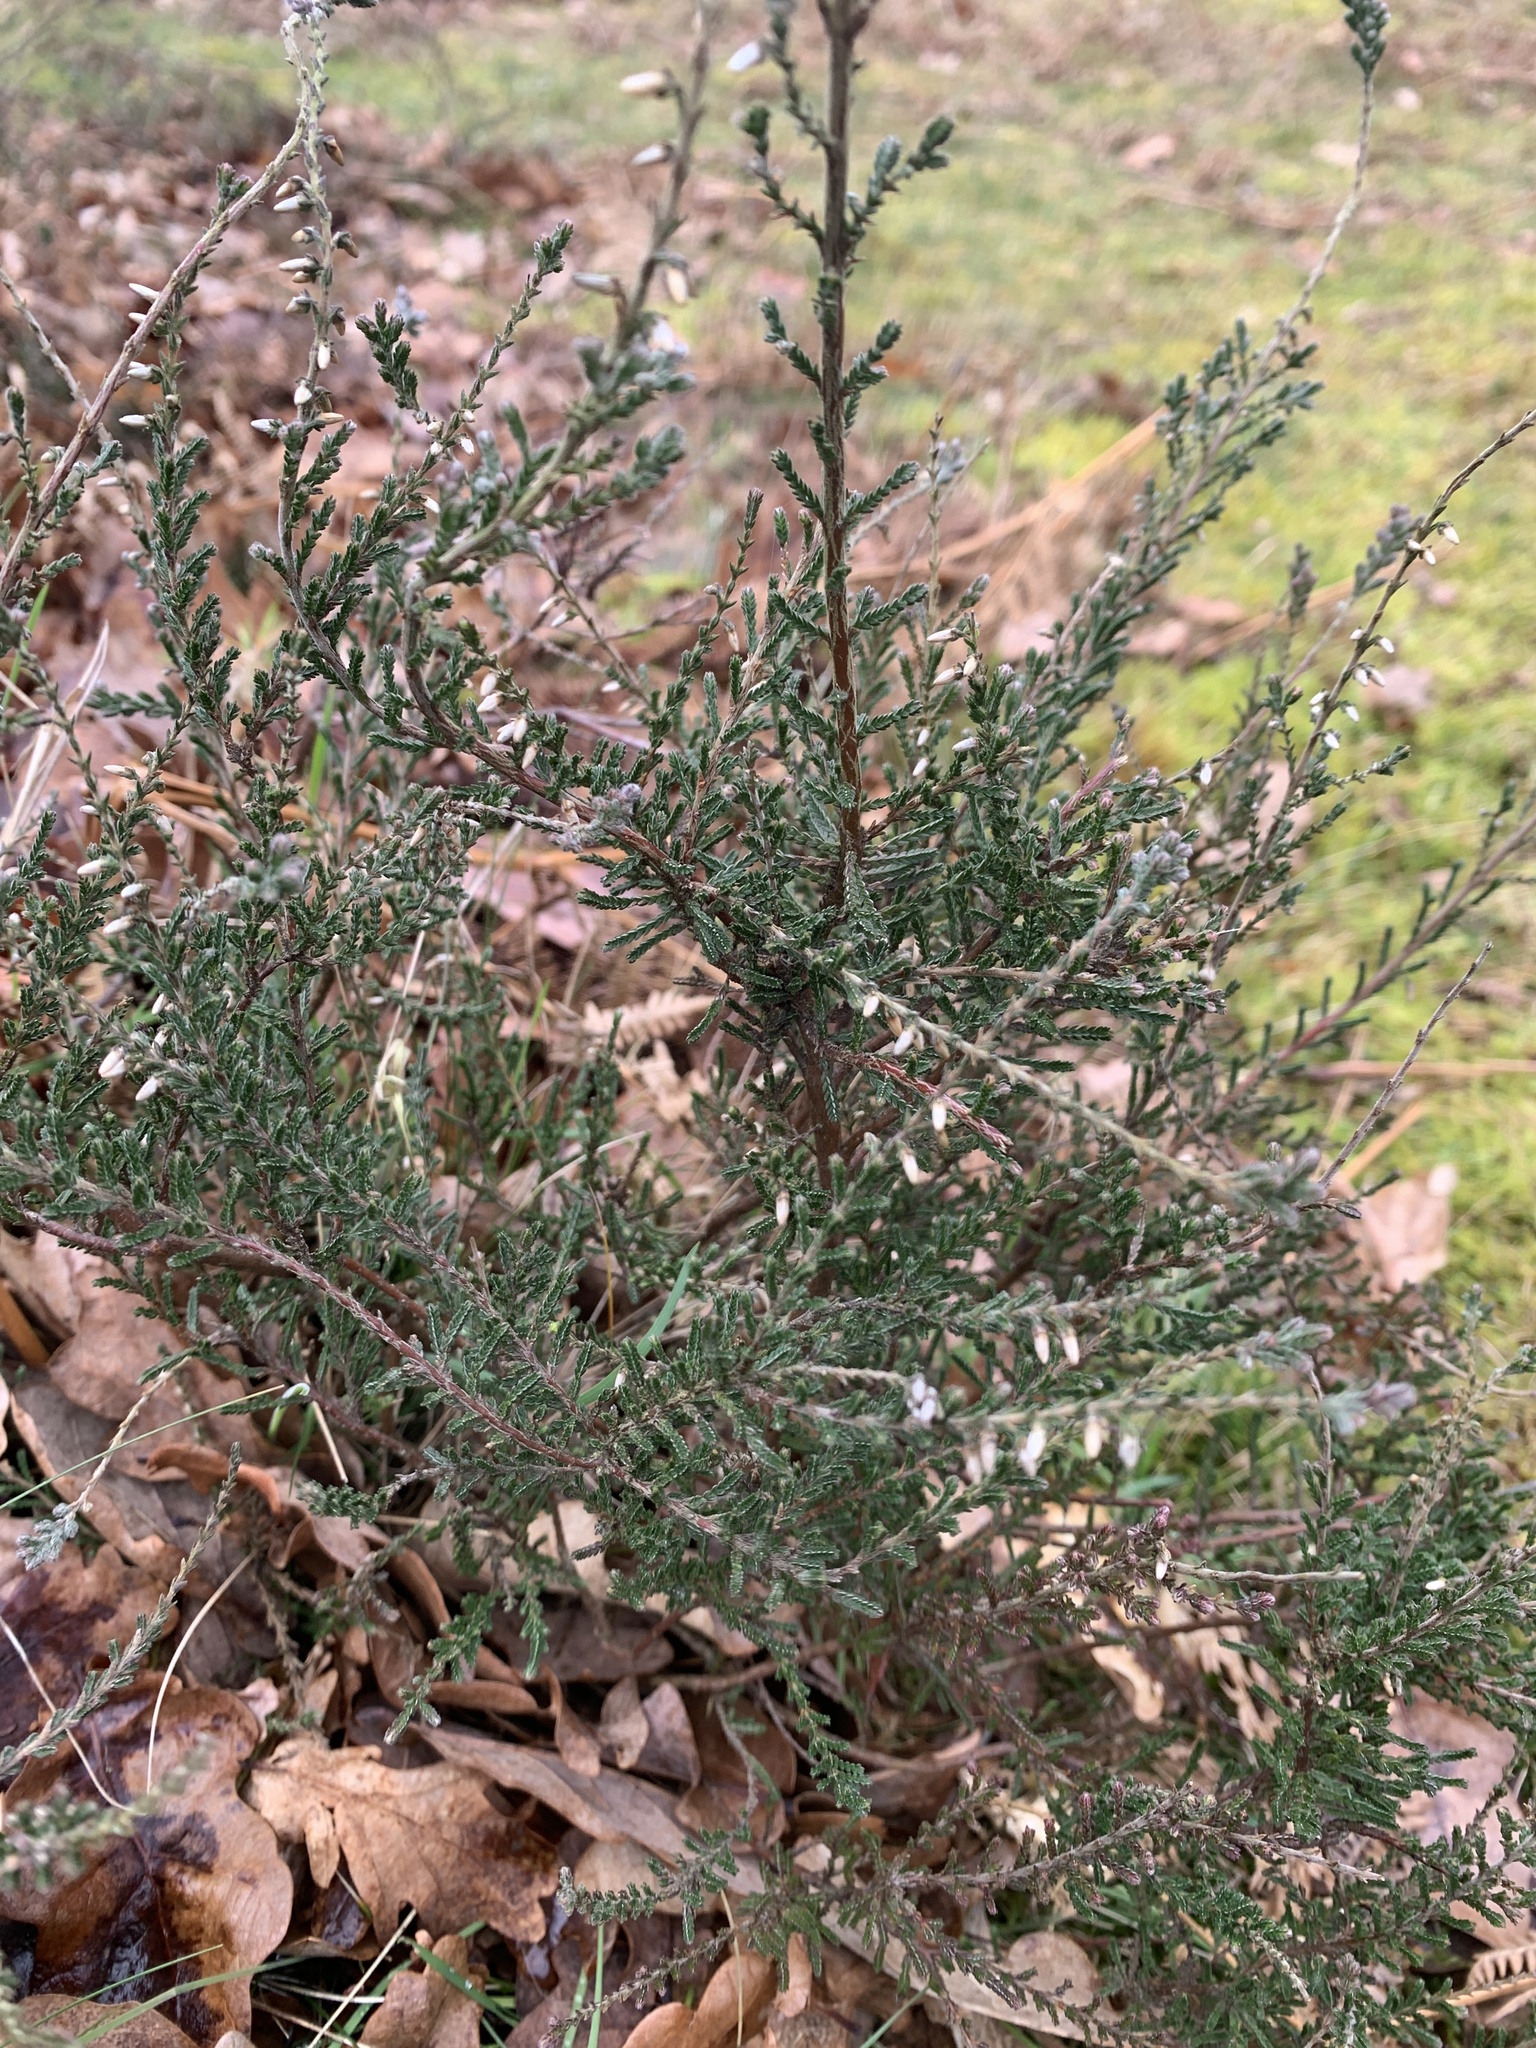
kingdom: Plantae
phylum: Tracheophyta
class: Magnoliopsida
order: Ericales
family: Ericaceae
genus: Calluna
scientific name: Calluna vulgaris
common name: Heather
